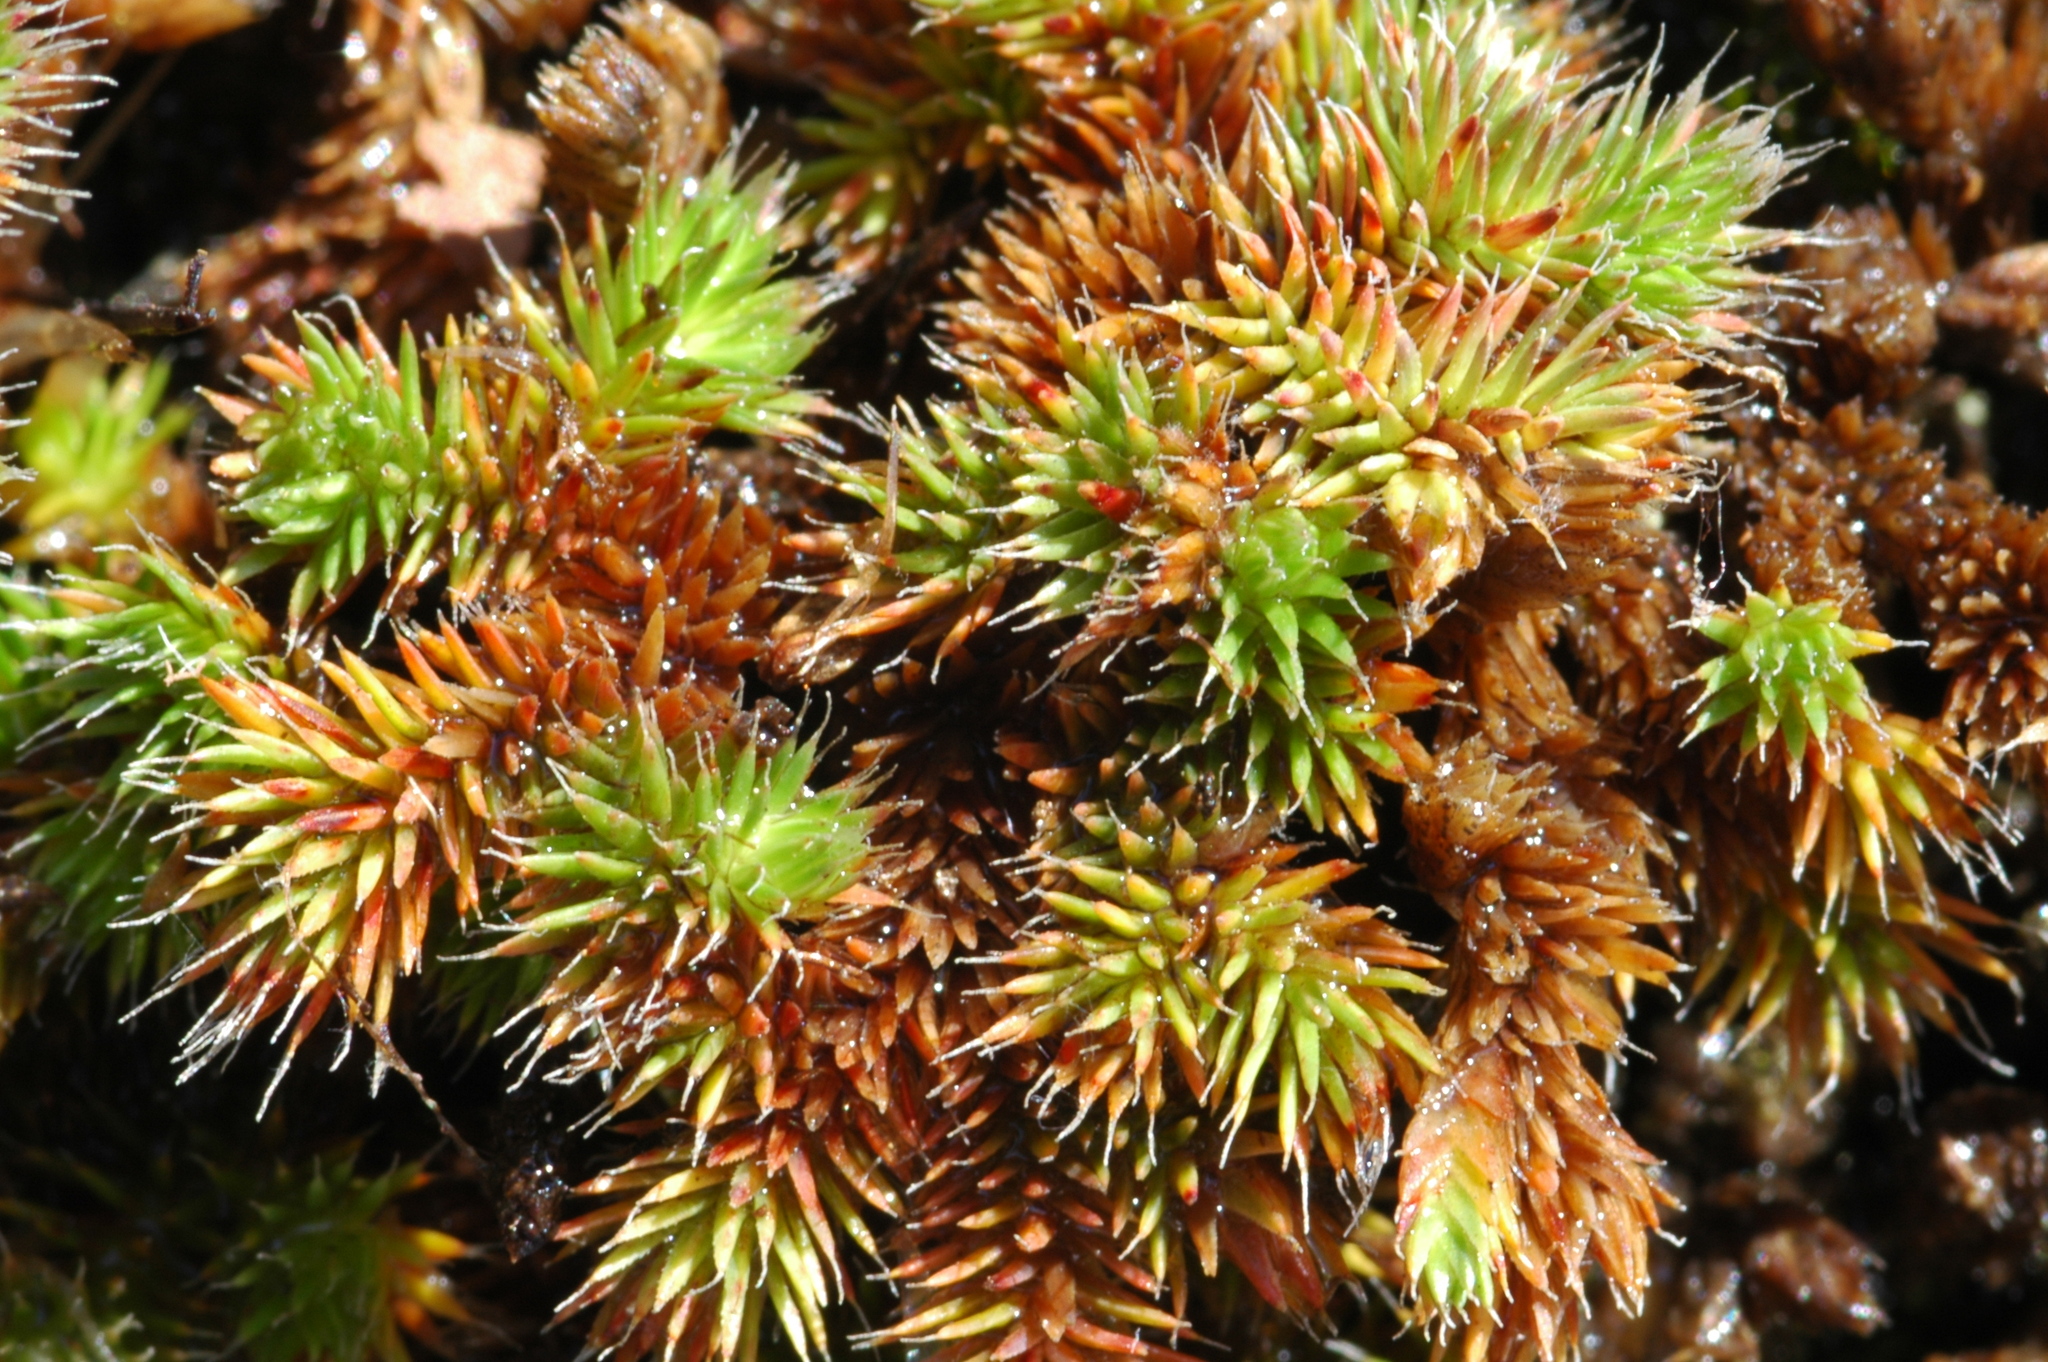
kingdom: Plantae
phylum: Tracheophyta
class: Lycopodiopsida
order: Selaginellales
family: Selaginellaceae
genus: Selaginella
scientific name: Selaginella hansenii
